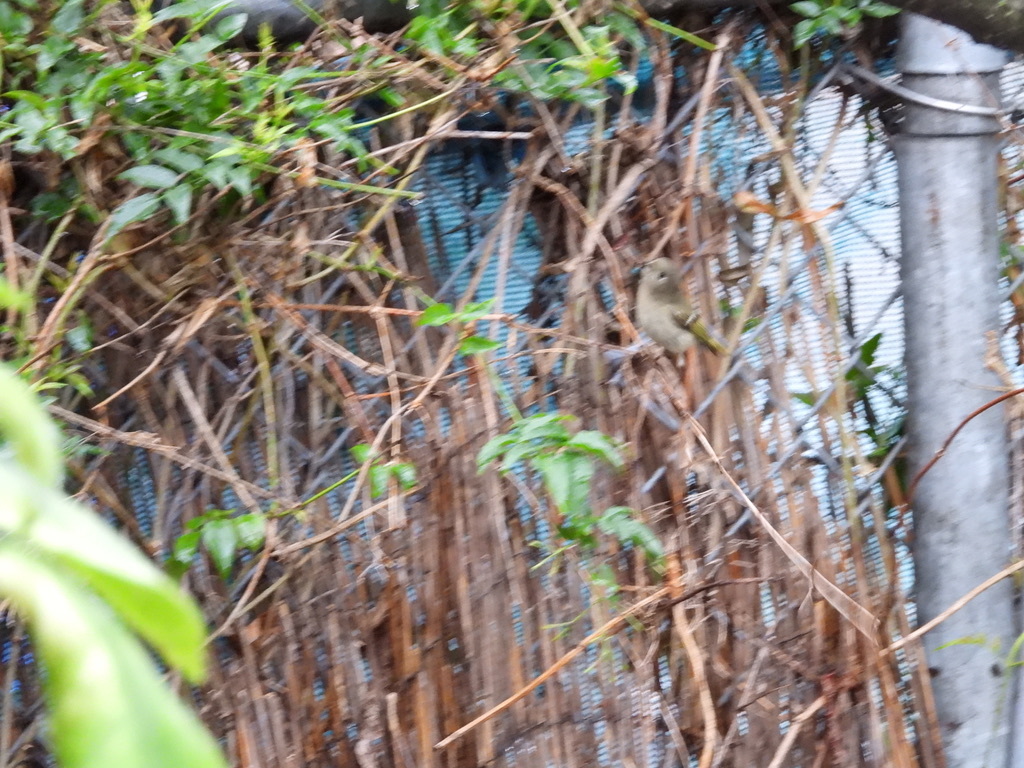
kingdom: Animalia
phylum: Chordata
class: Aves
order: Passeriformes
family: Regulidae
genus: Regulus
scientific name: Regulus calendula
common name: Ruby-crowned kinglet
